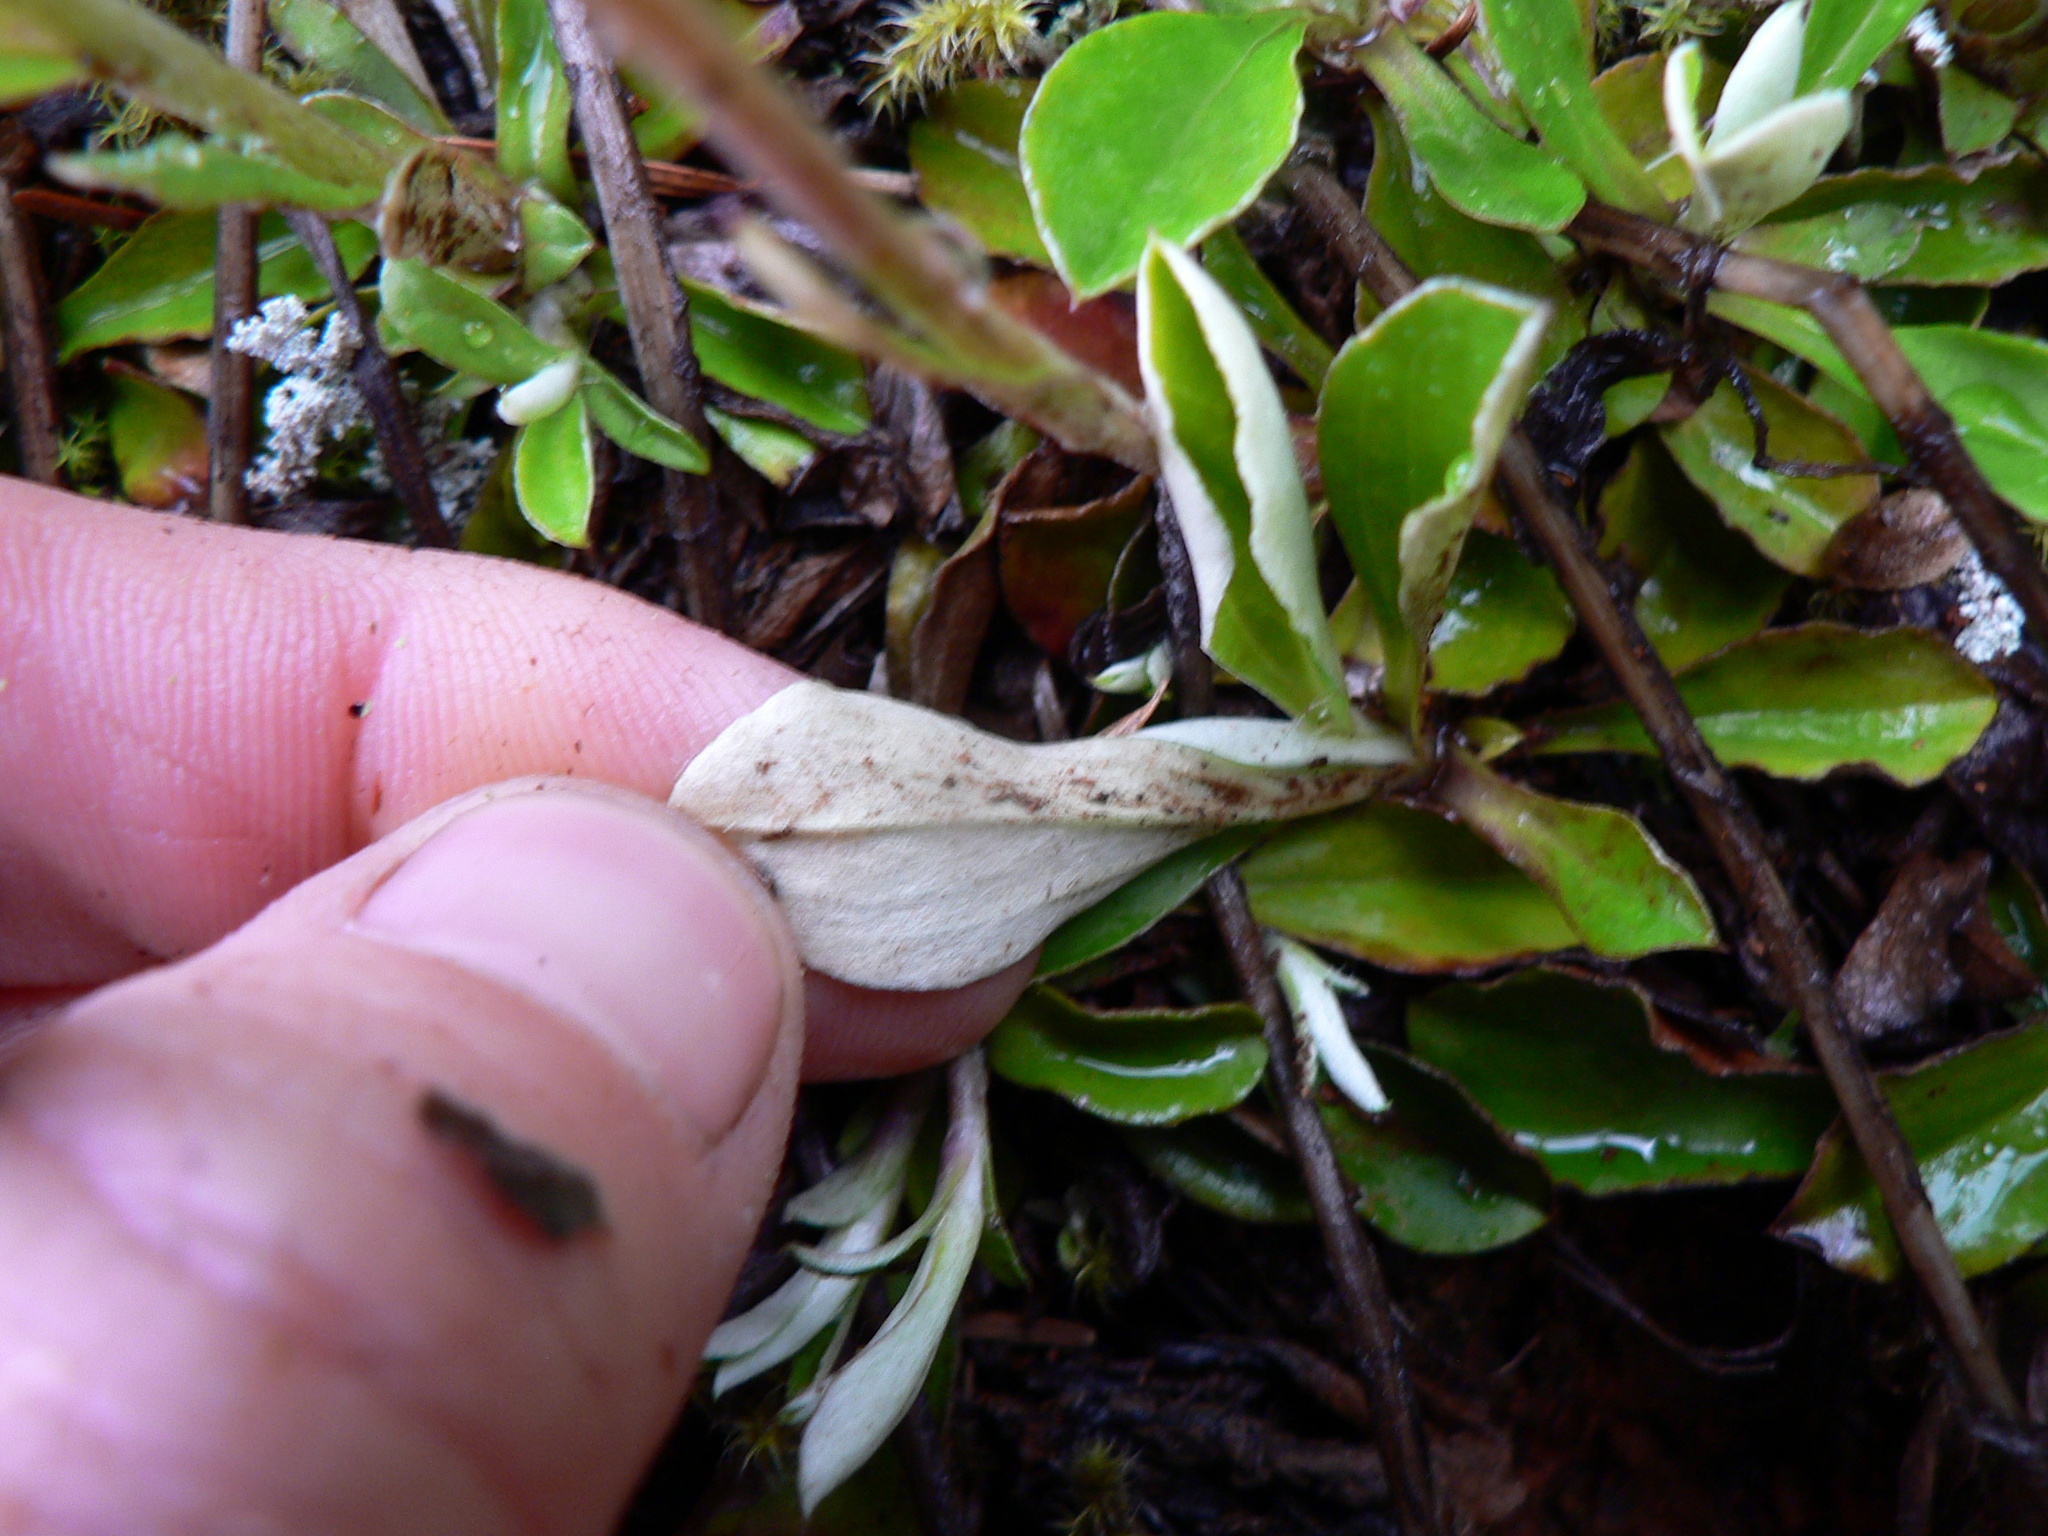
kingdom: Plantae
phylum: Tracheophyta
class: Magnoliopsida
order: Asterales
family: Asteraceae
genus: Antennaria
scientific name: Antennaria howellii
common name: Howell's pussytoes
